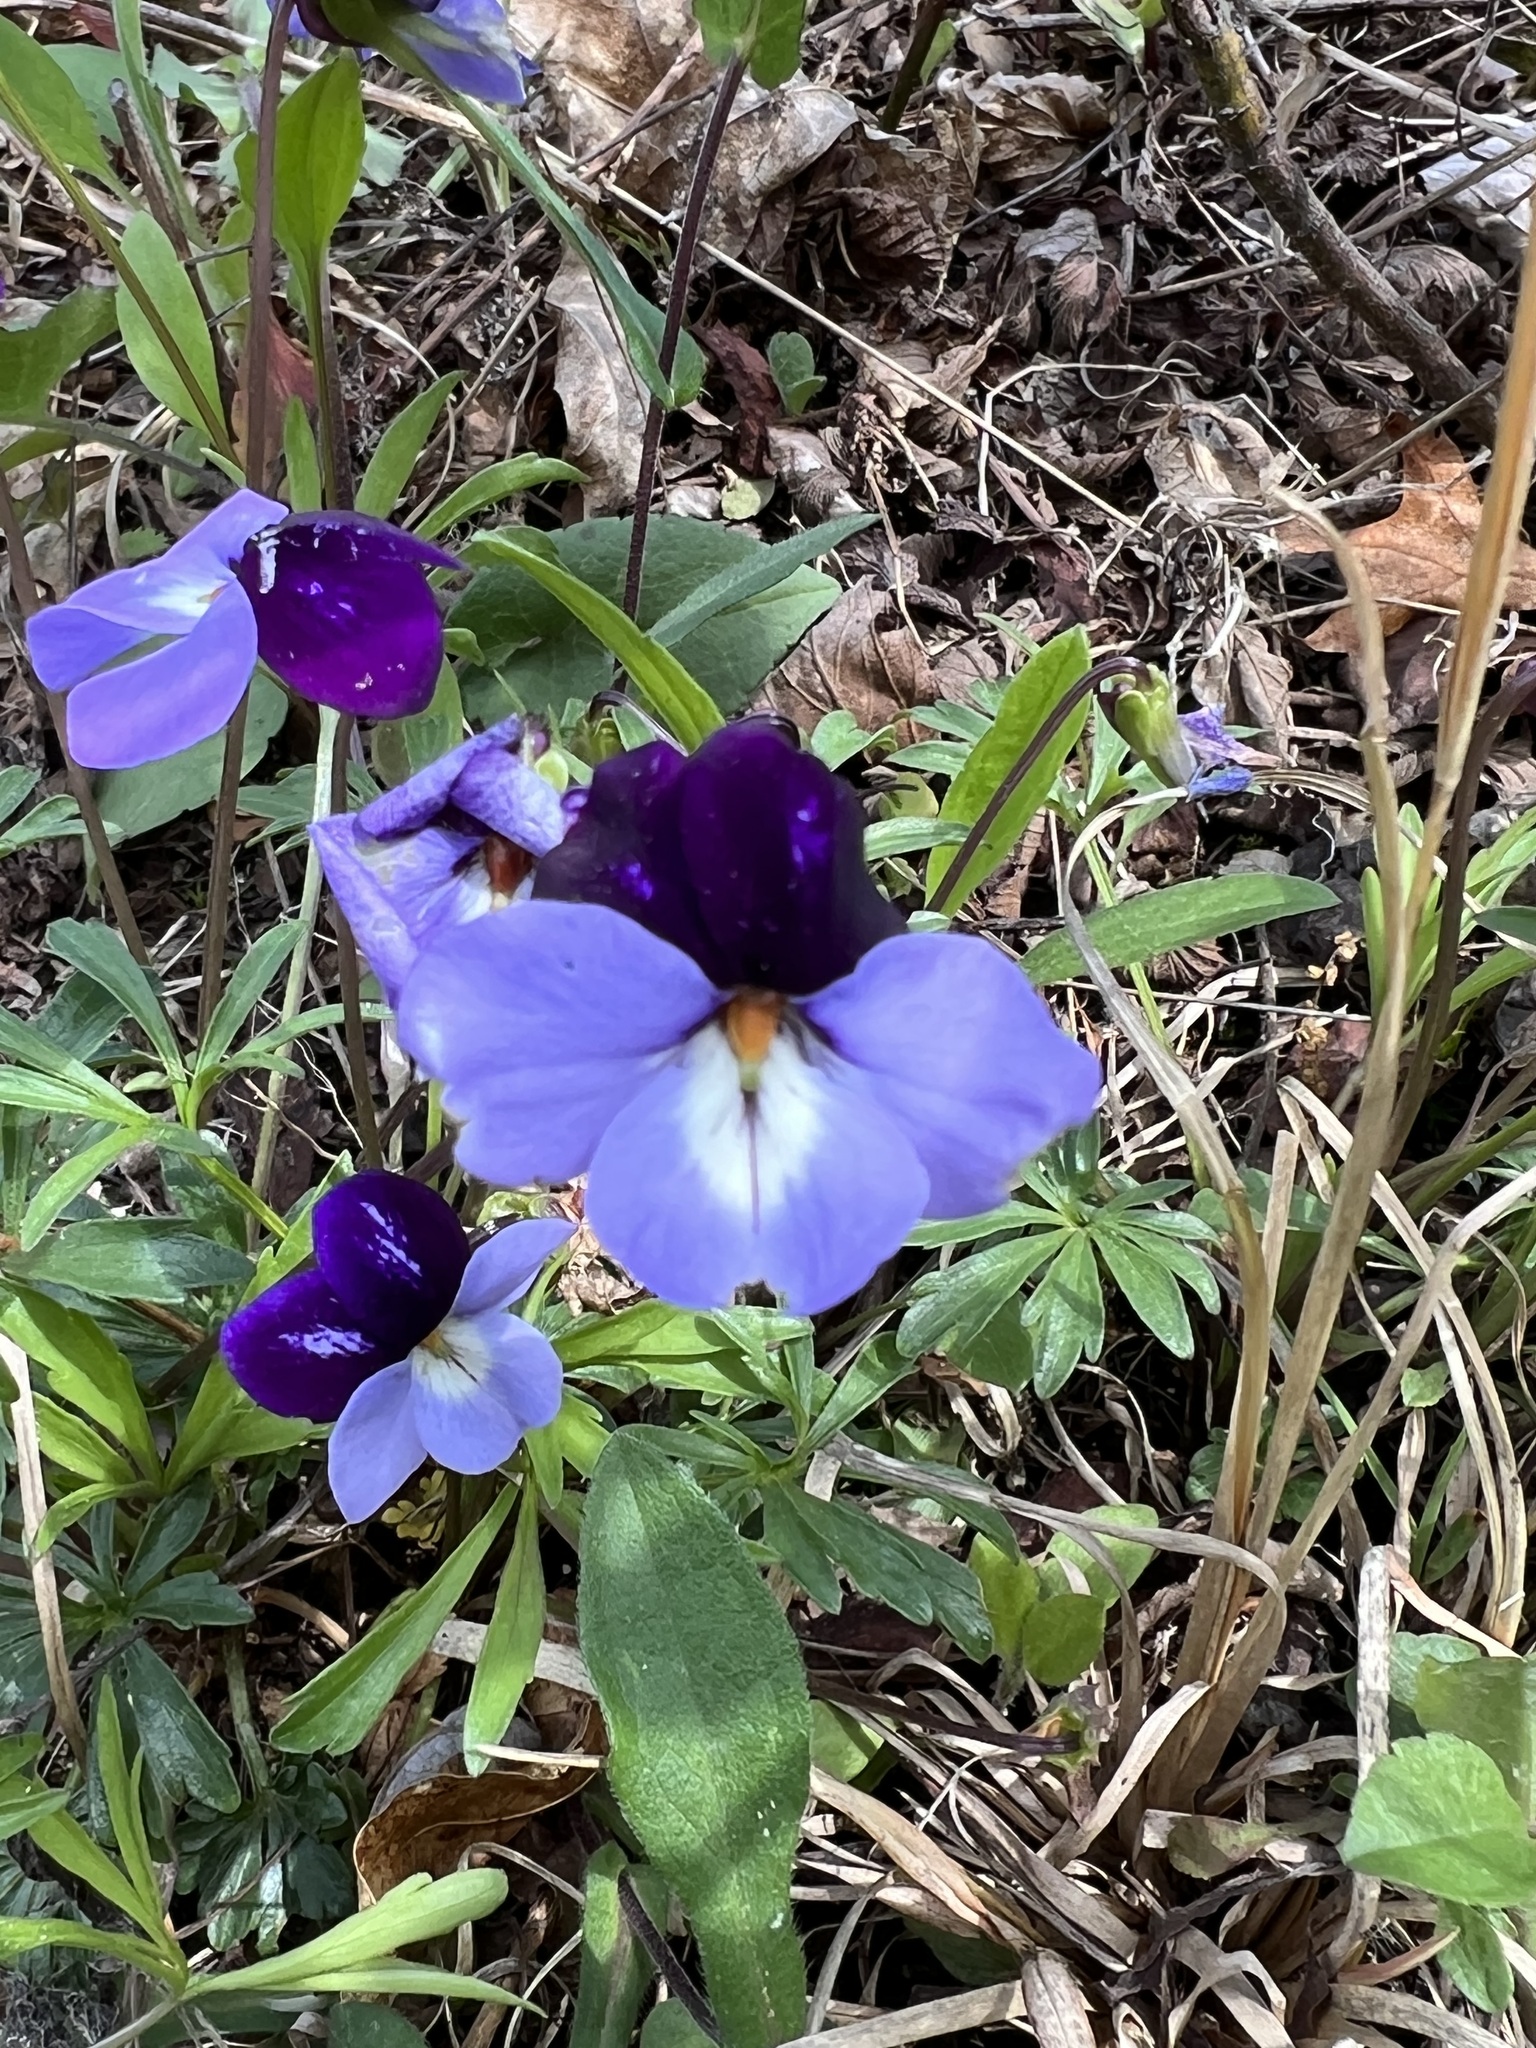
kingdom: Plantae
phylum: Tracheophyta
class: Magnoliopsida
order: Malpighiales
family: Violaceae
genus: Viola
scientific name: Viola pedata
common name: Pansy violet
